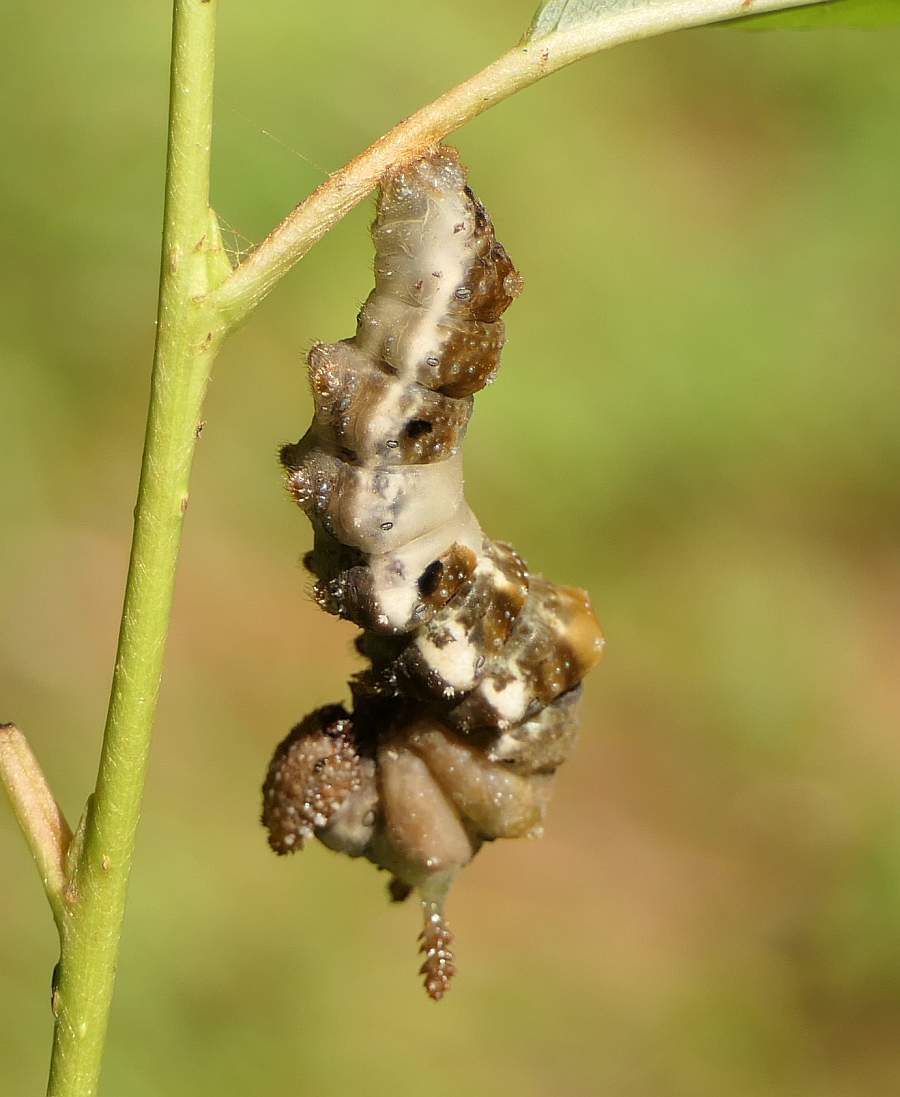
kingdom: Animalia
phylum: Arthropoda
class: Insecta
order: Lepidoptera
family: Nymphalidae
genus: Limenitis
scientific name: Limenitis
